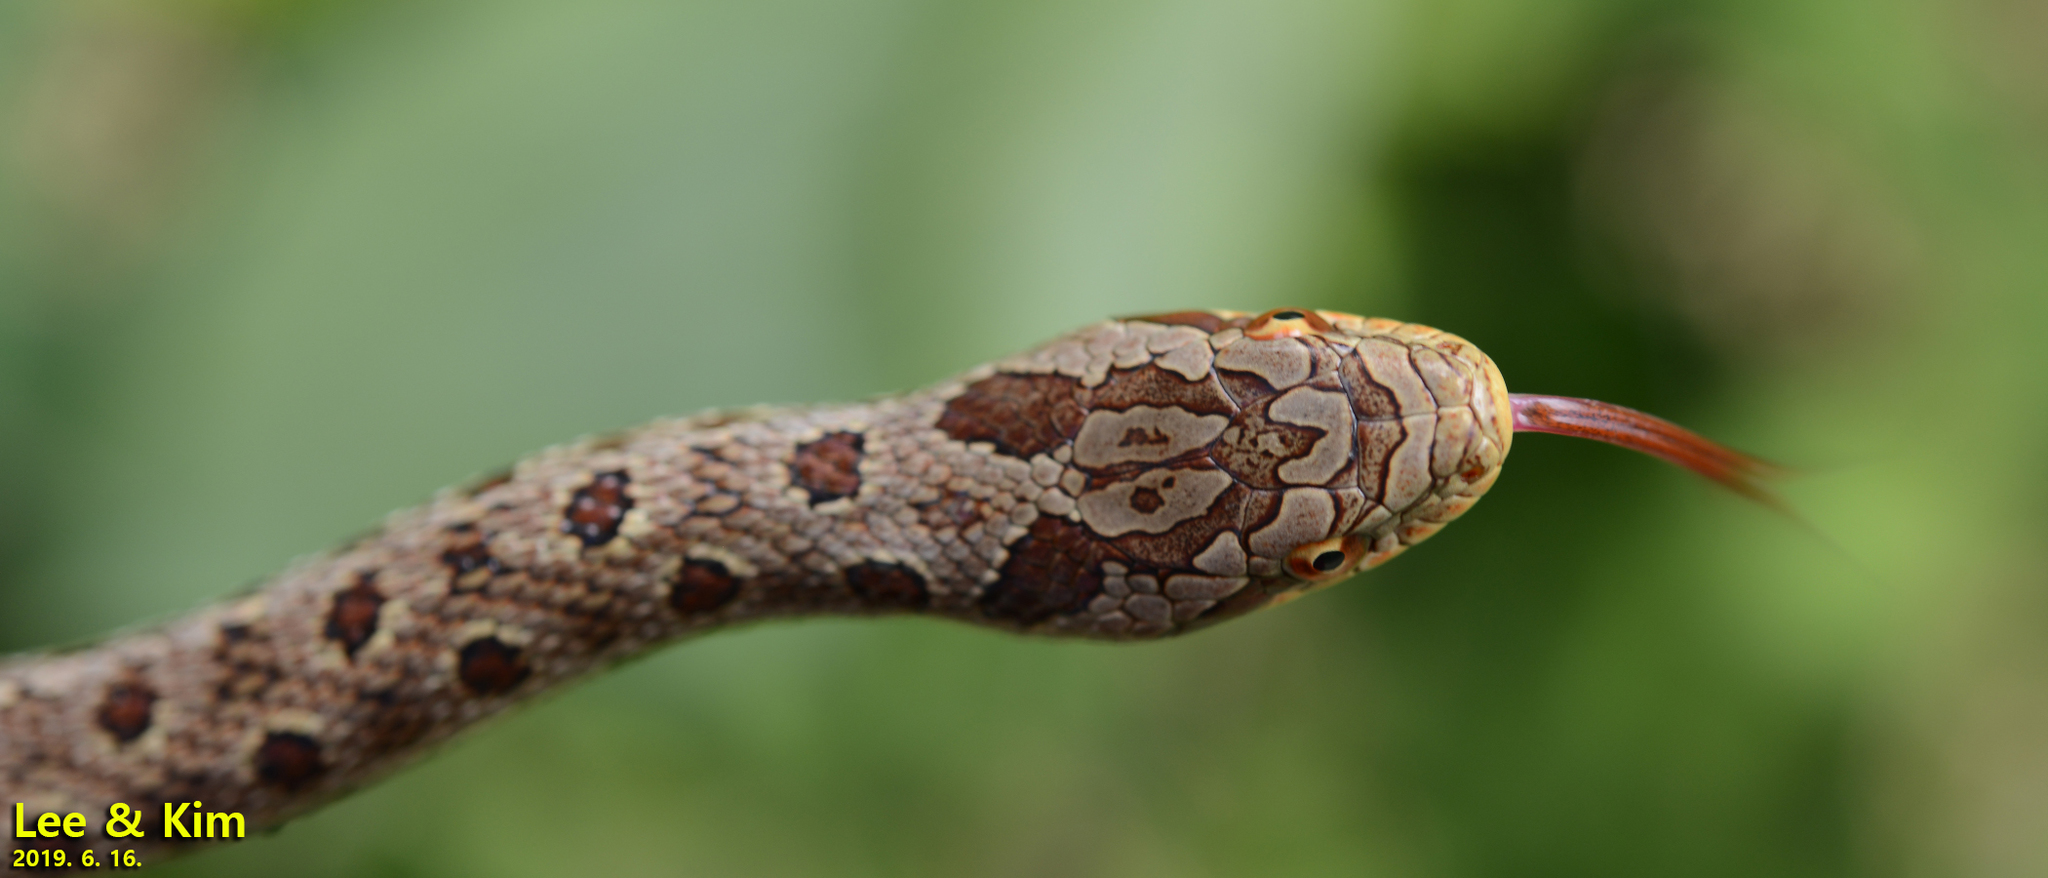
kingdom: Animalia
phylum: Chordata
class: Squamata
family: Colubridae
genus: Elaphe
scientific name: Elaphe dione
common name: Dione ratsnake
